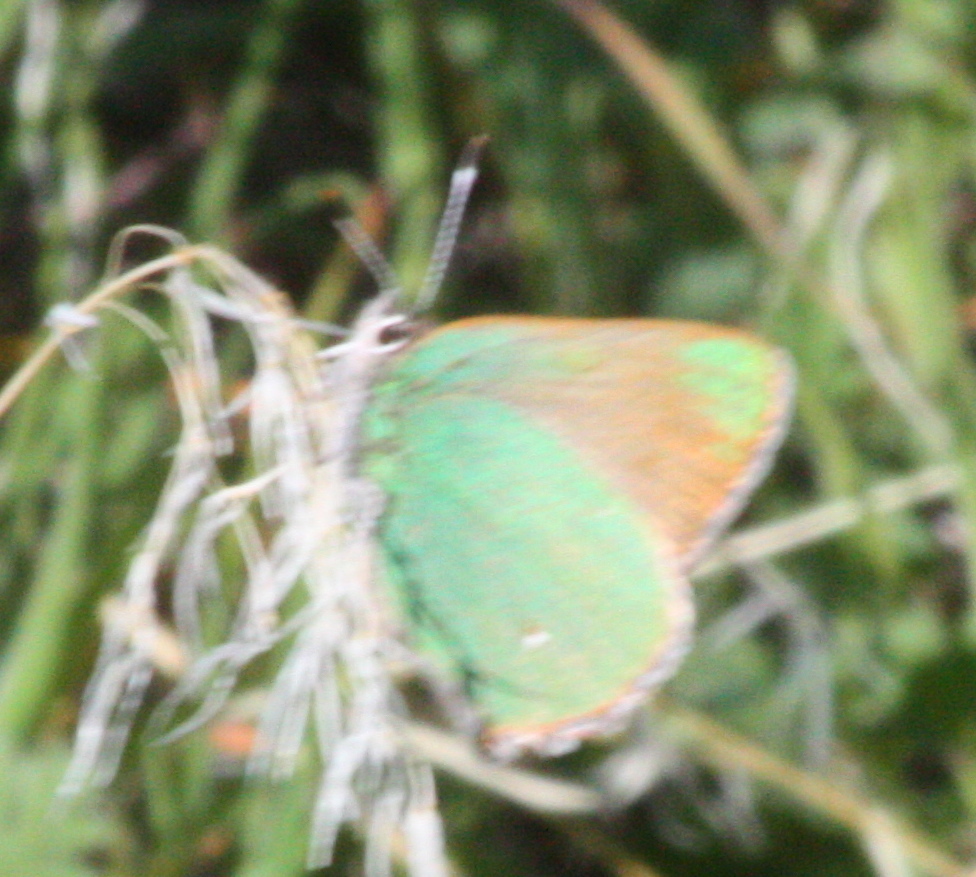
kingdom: Animalia
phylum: Arthropoda
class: Insecta
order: Lepidoptera
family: Lycaenidae
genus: Callophrys
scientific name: Callophrys dumetorum
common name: Bramble hairstreak
